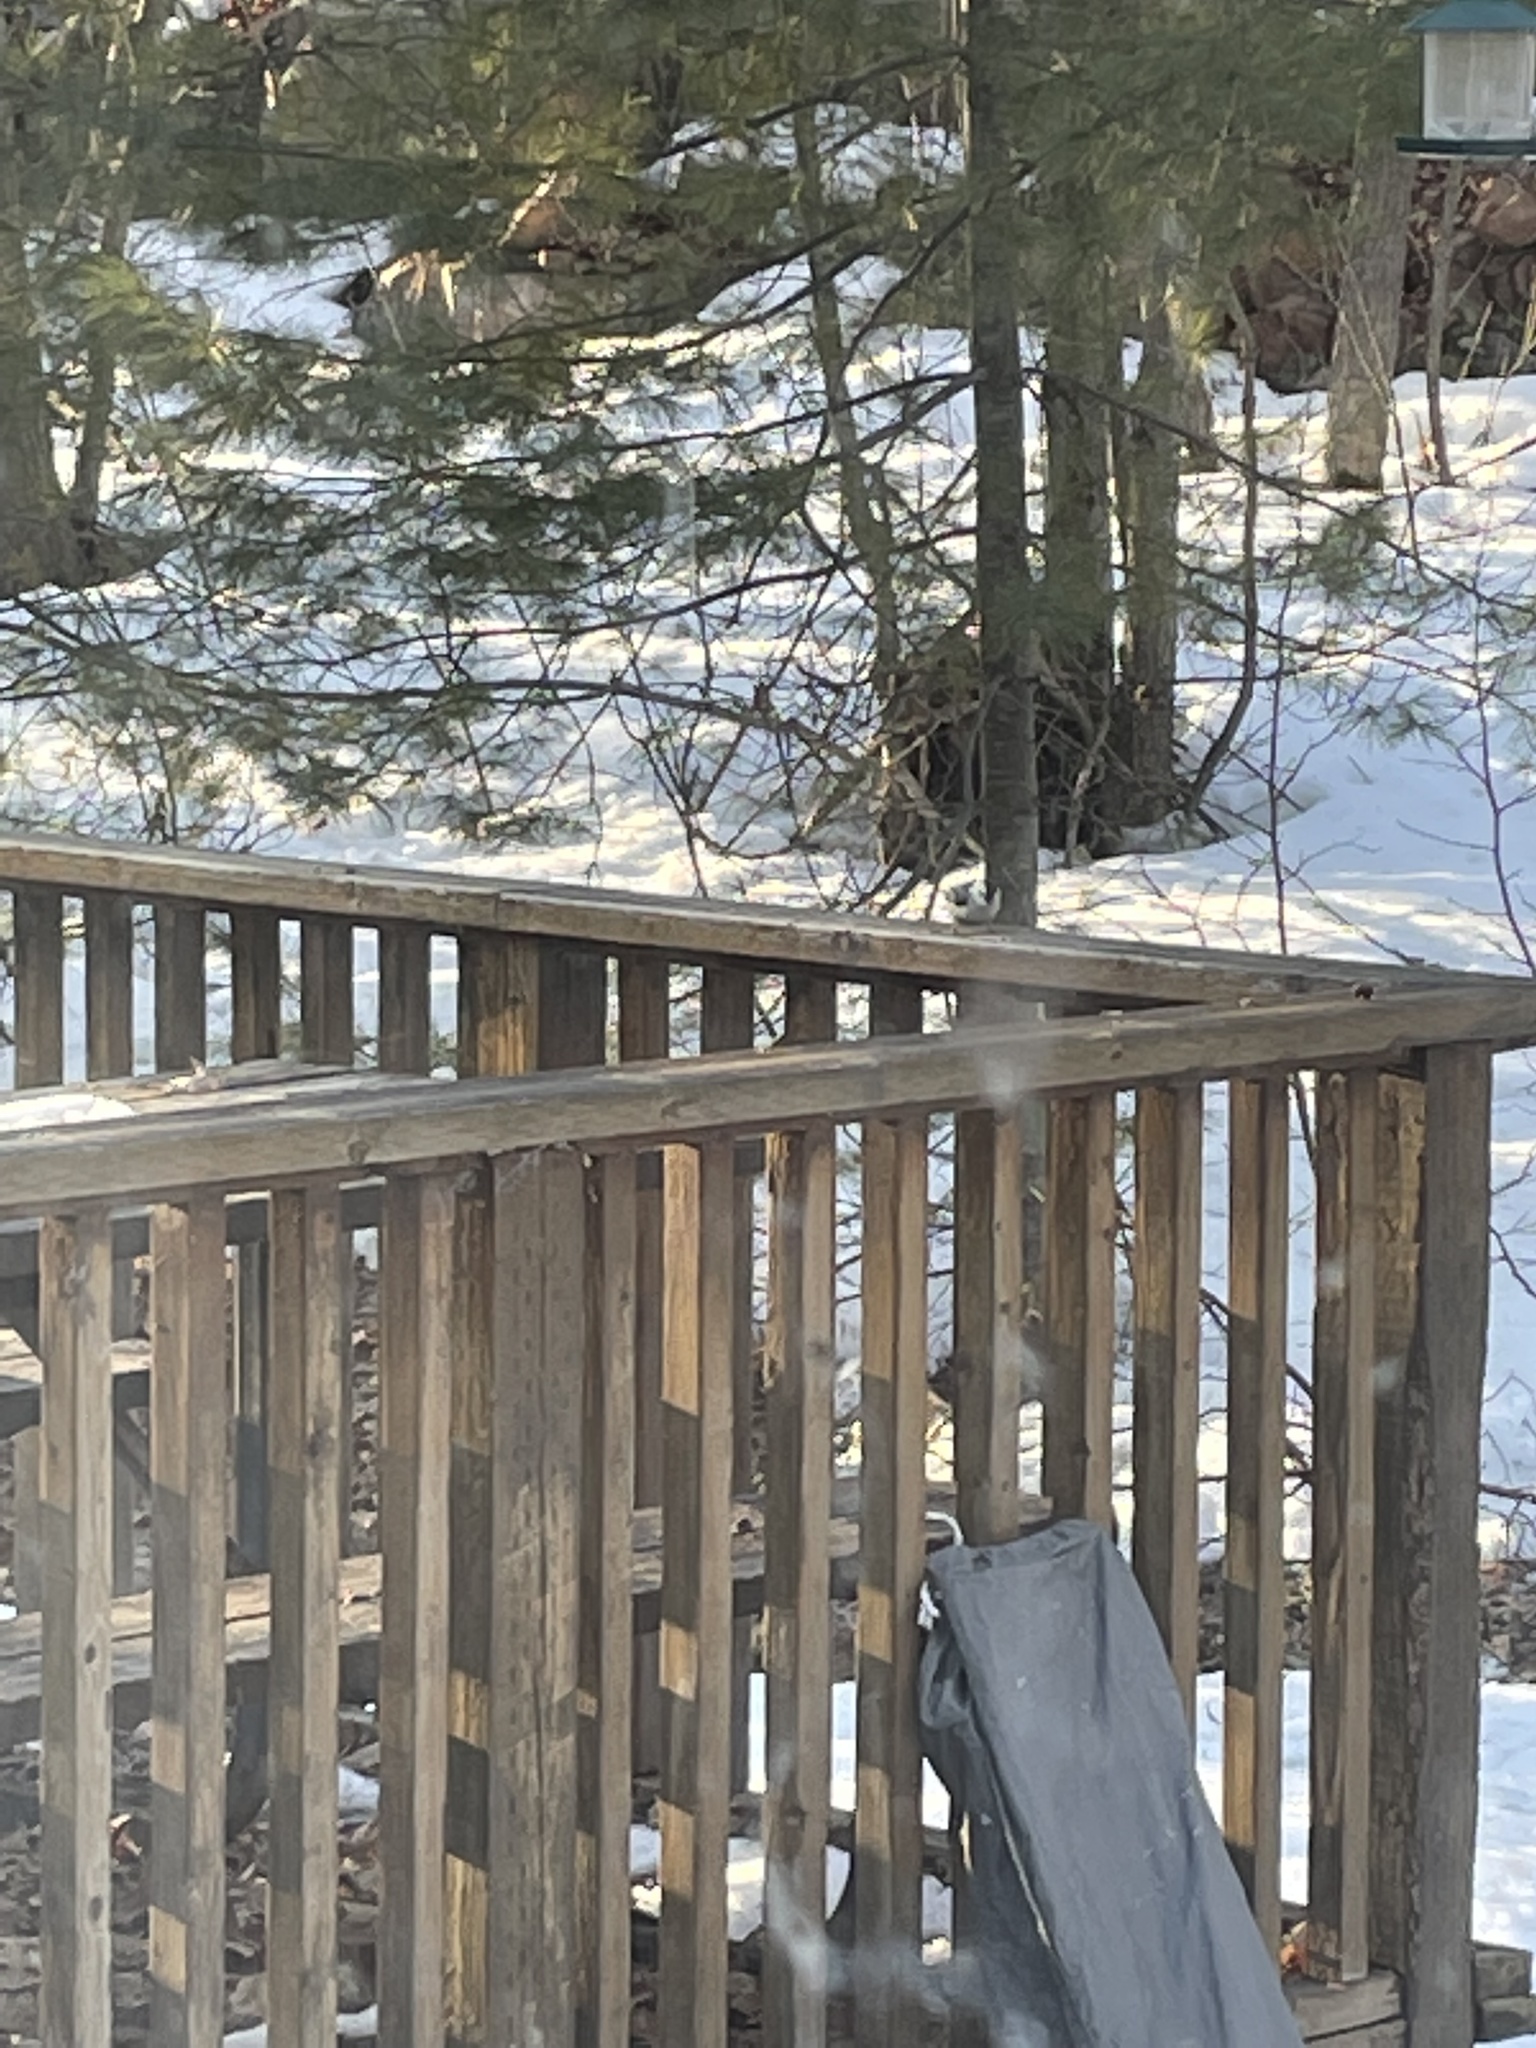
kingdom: Animalia
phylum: Chordata
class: Aves
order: Passeriformes
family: Sittidae
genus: Sitta
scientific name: Sitta carolinensis
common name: White-breasted nuthatch
